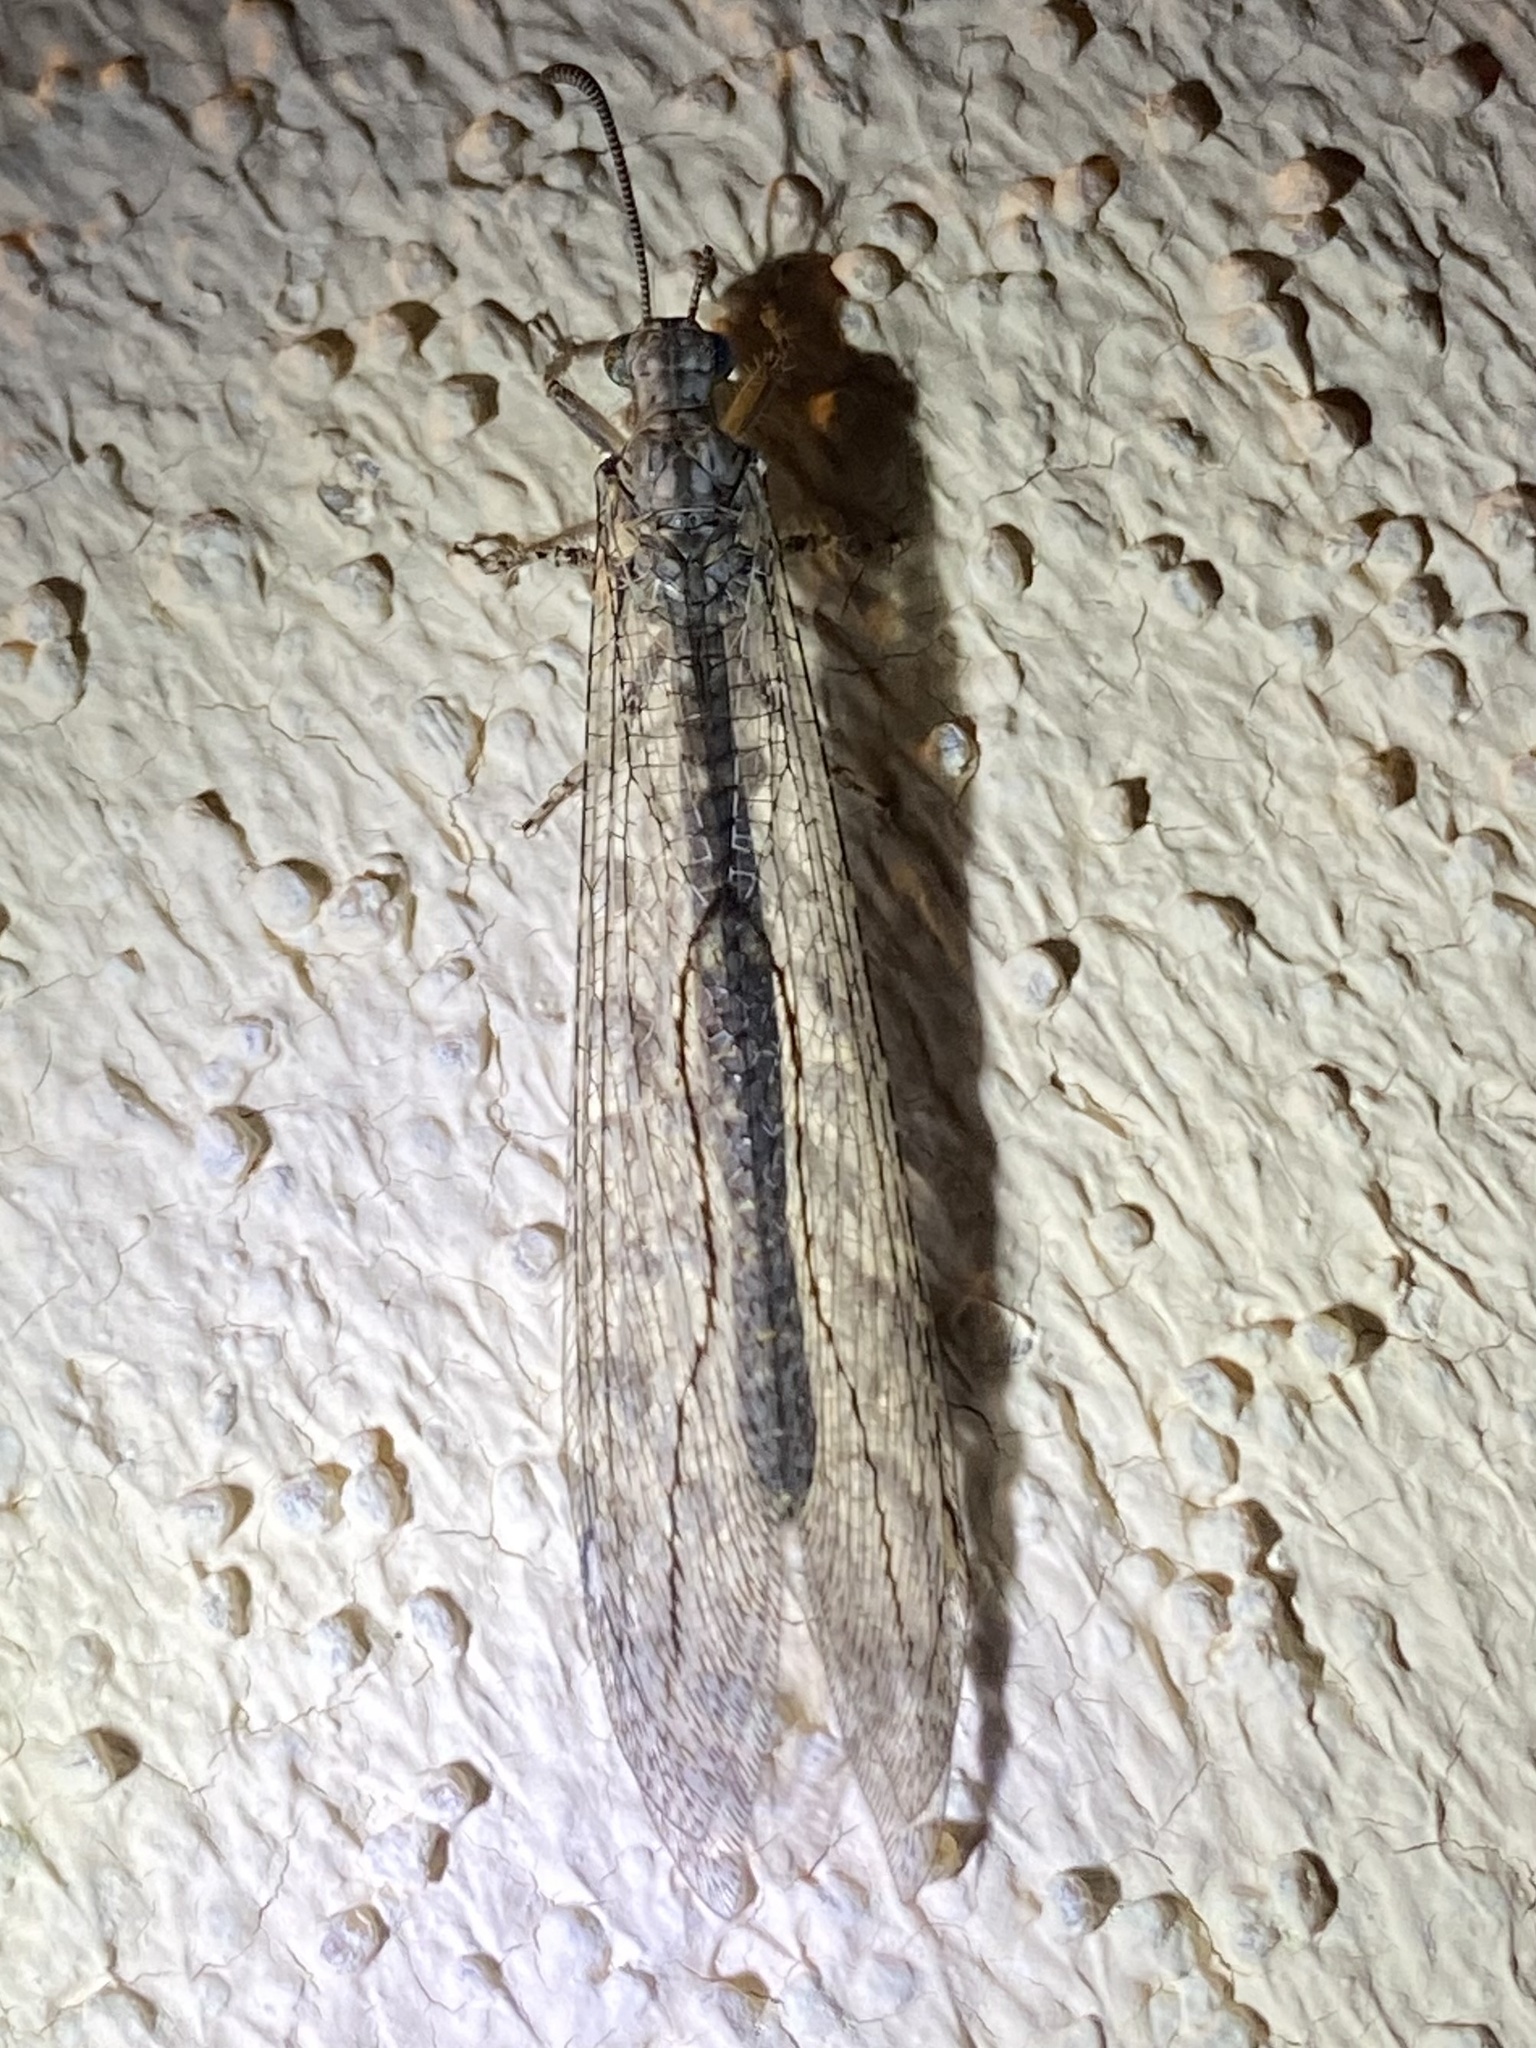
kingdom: Animalia
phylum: Arthropoda
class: Insecta
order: Neuroptera
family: Myrmeleontidae
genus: Euptilon
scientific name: Euptilon sinuatum
